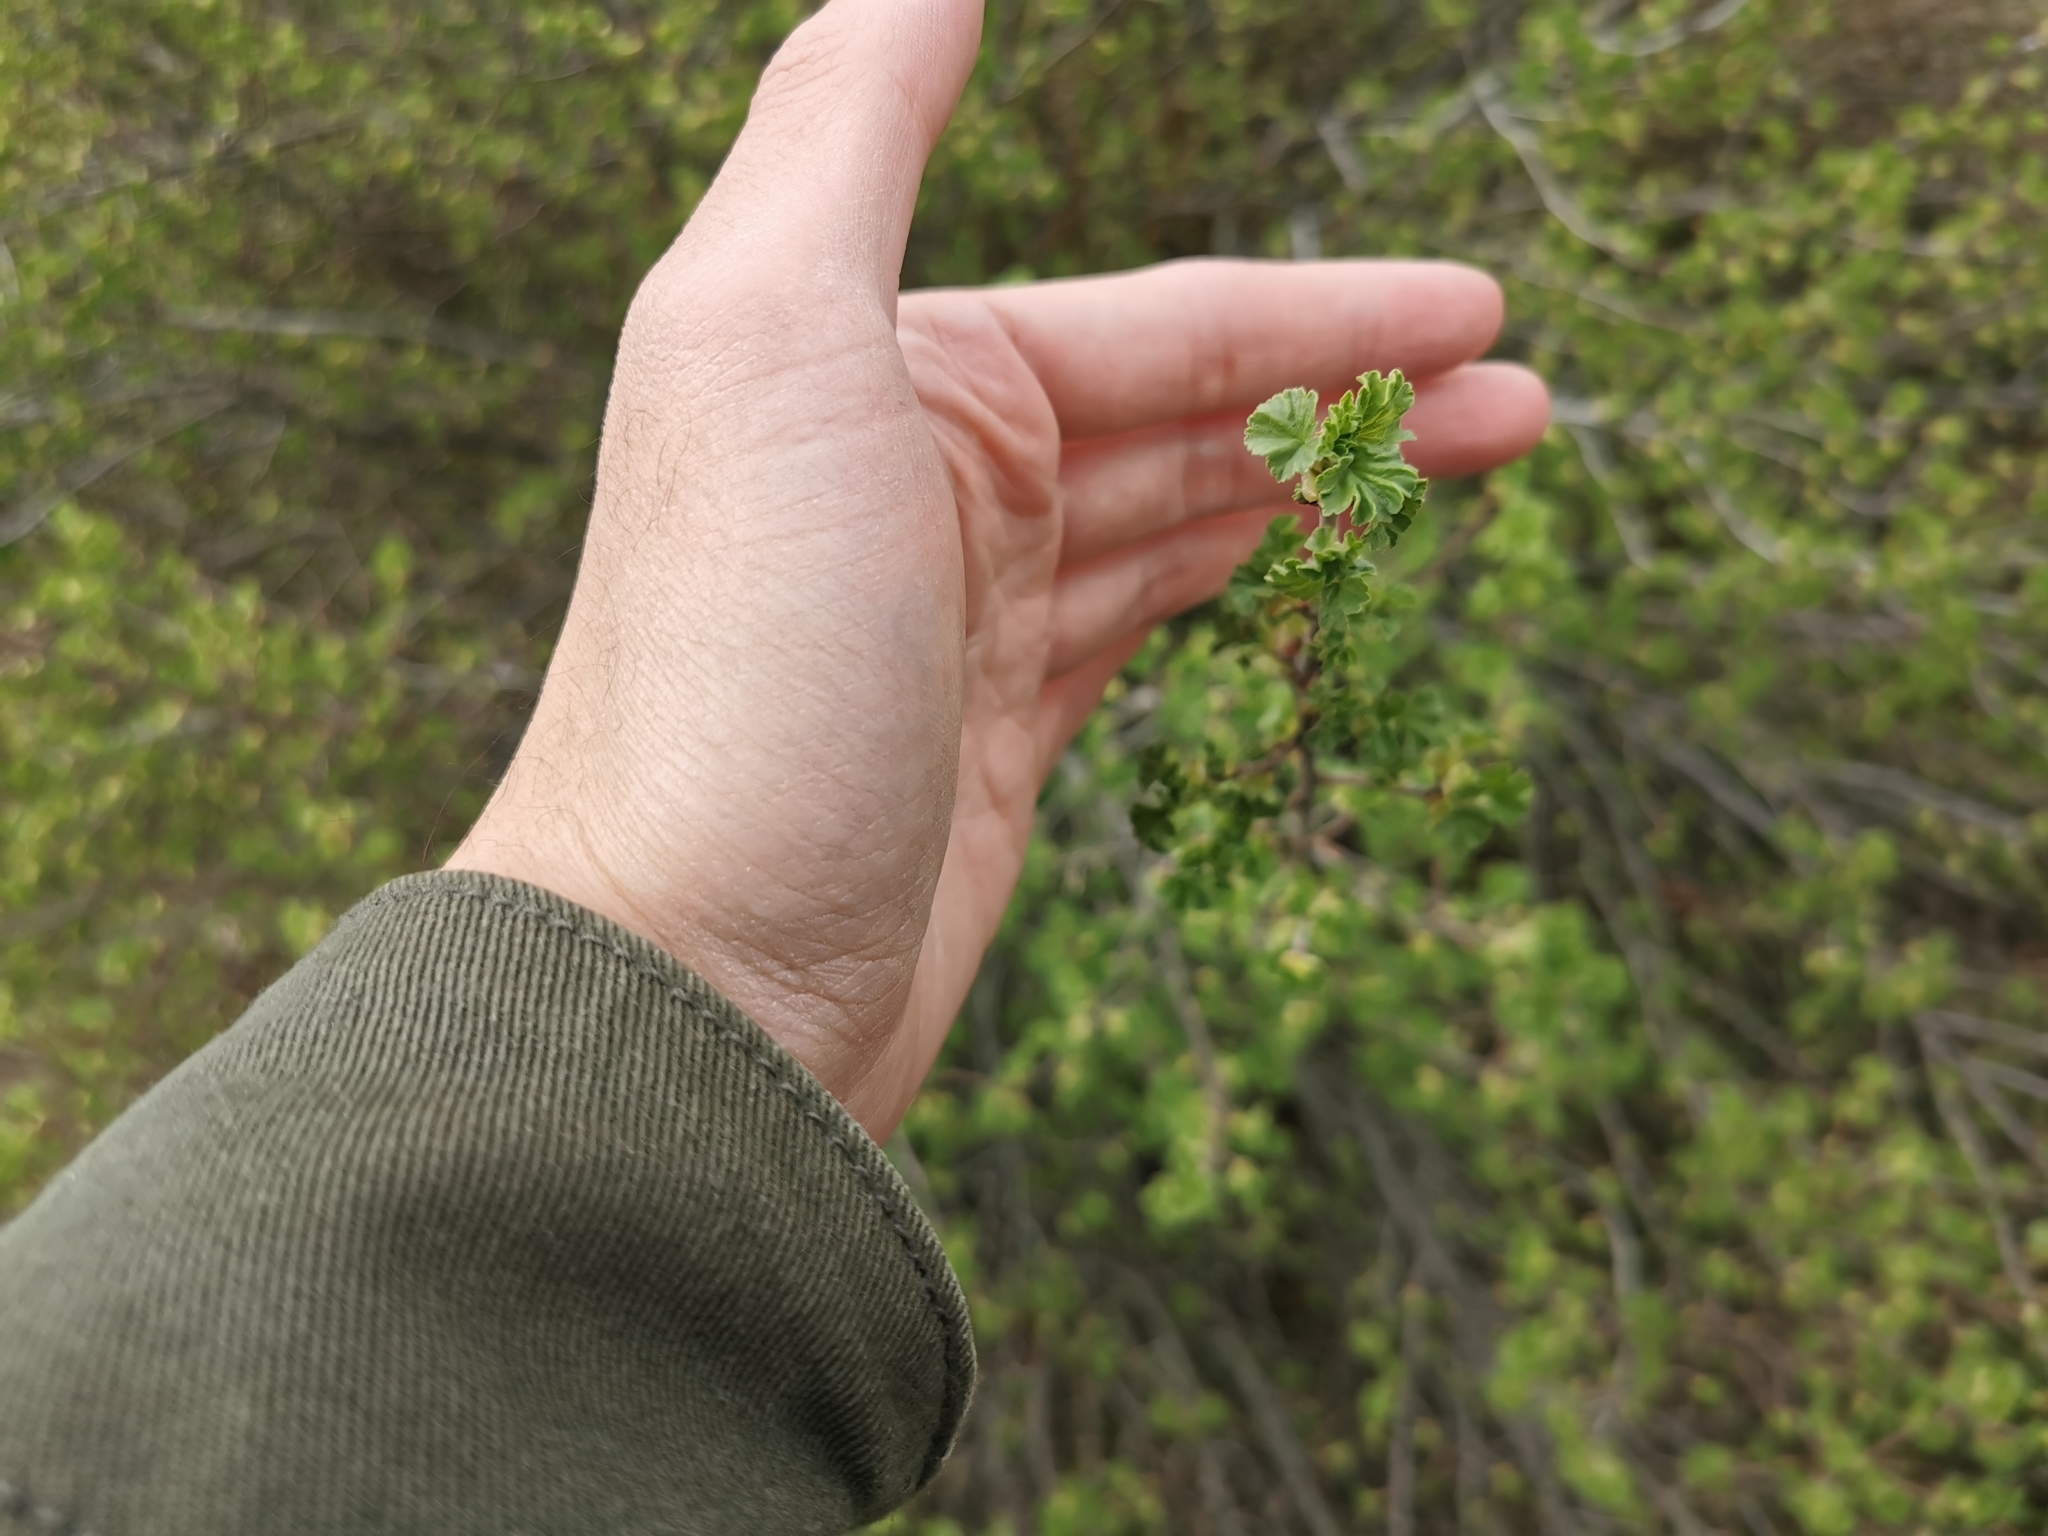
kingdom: Plantae
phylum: Tracheophyta
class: Magnoliopsida
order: Saxifragales
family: Grossulariaceae
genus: Ribes
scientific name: Ribes cereum
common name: Wax currant
